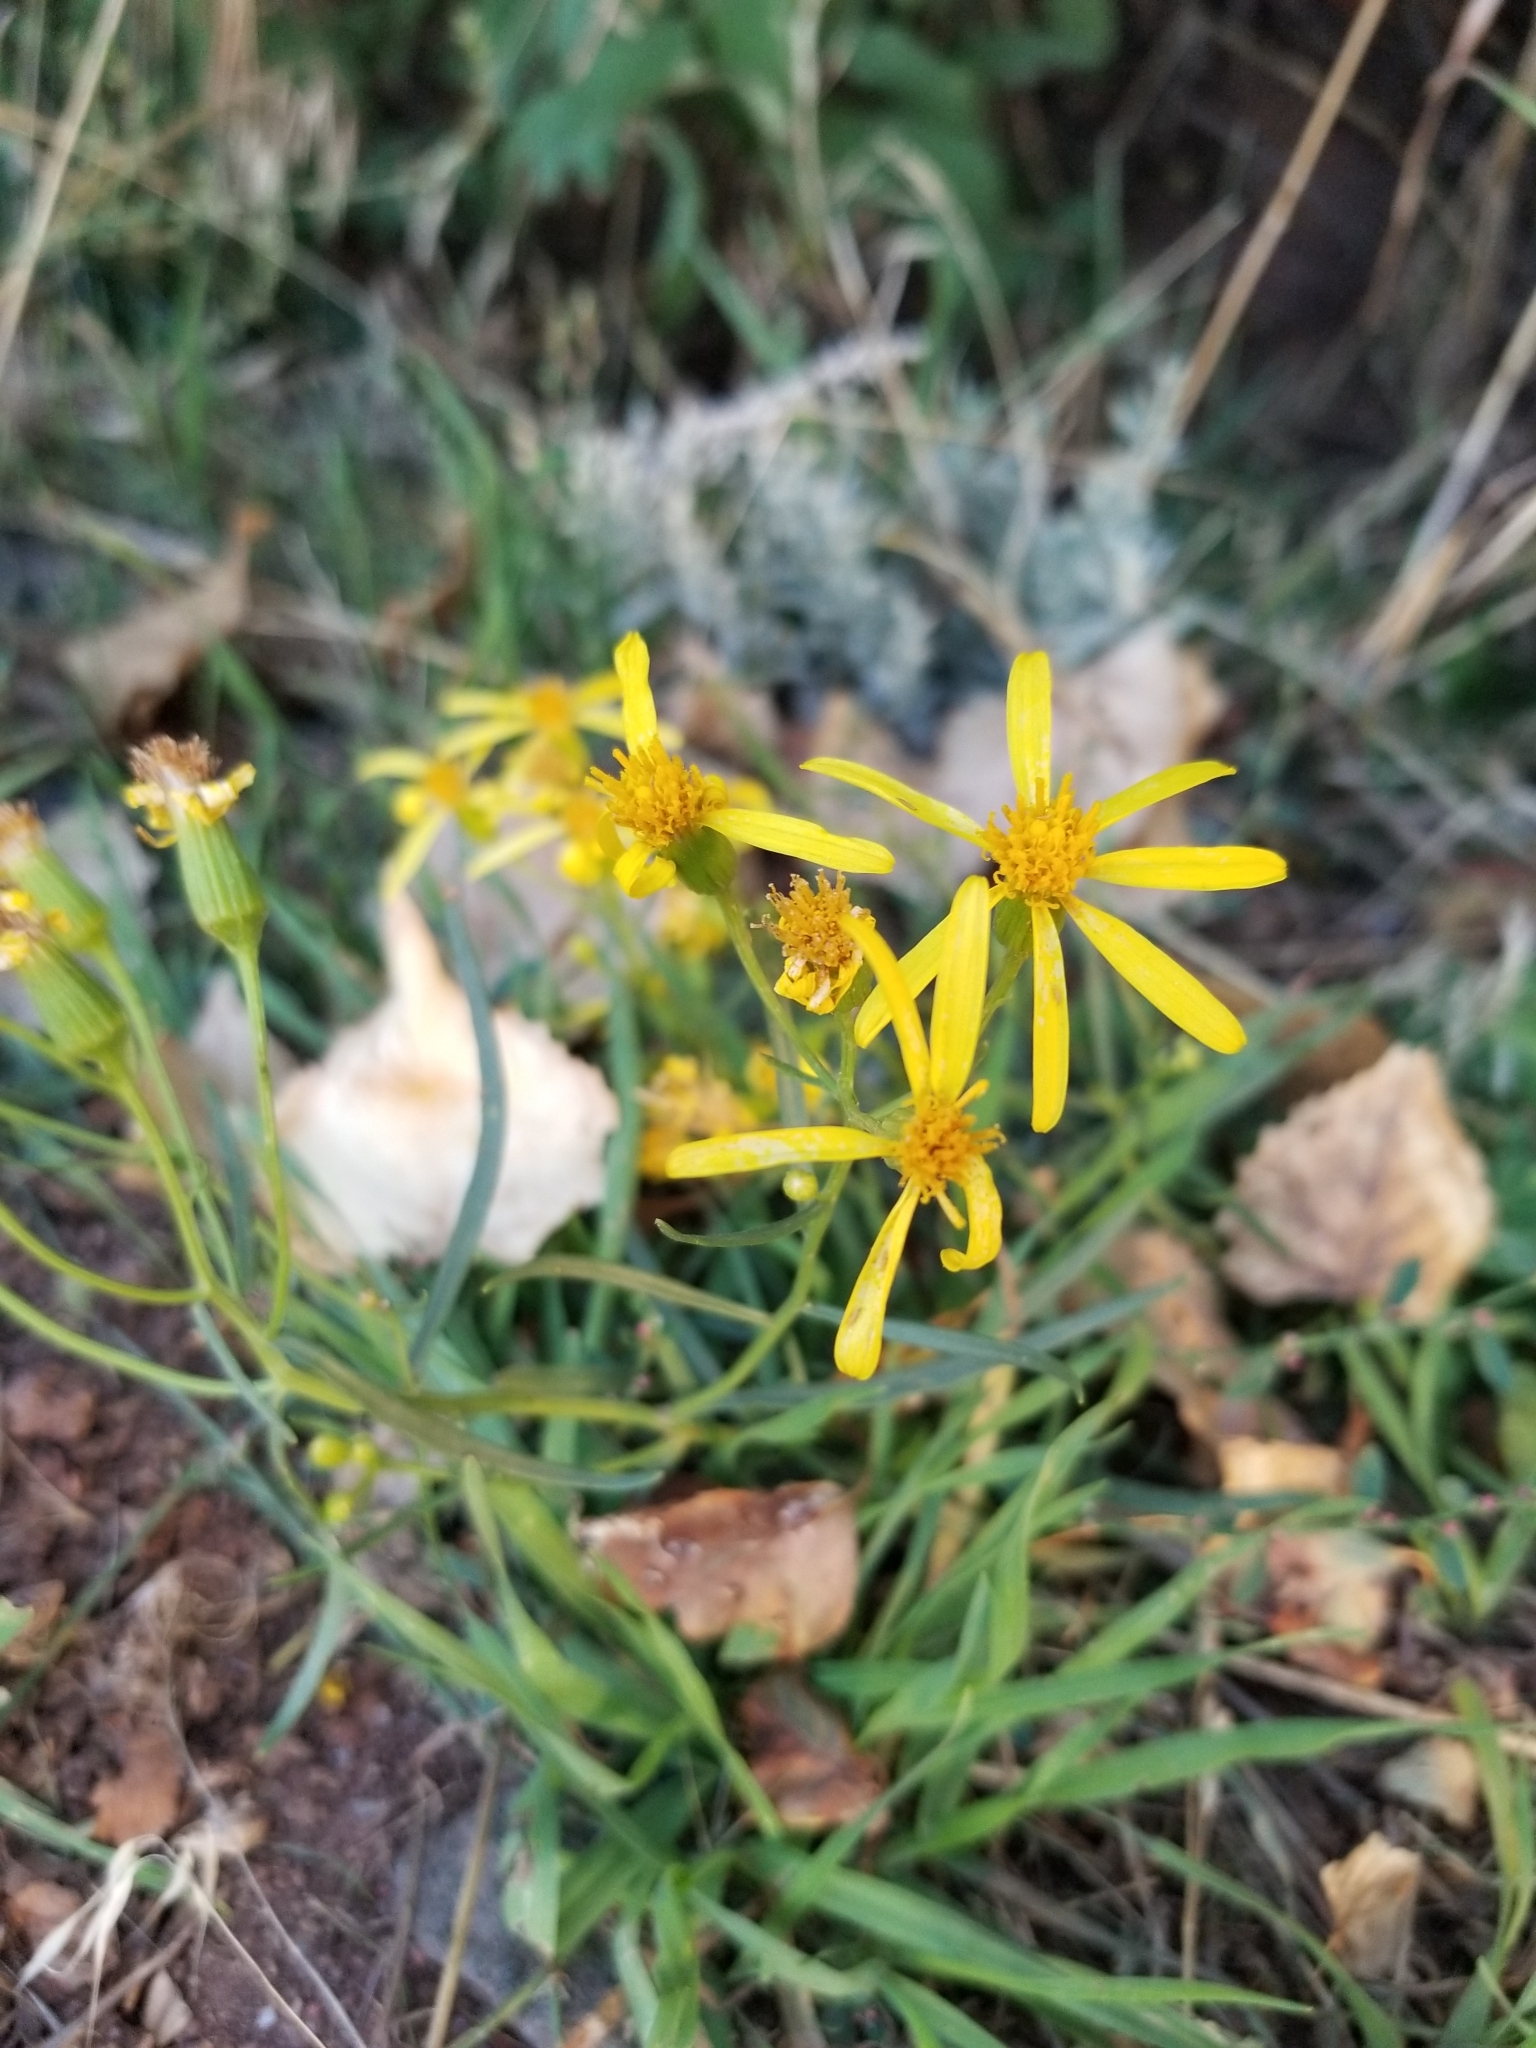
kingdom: Plantae
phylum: Tracheophyta
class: Magnoliopsida
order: Asterales
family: Asteraceae
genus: Senecio
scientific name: Senecio spartioides
